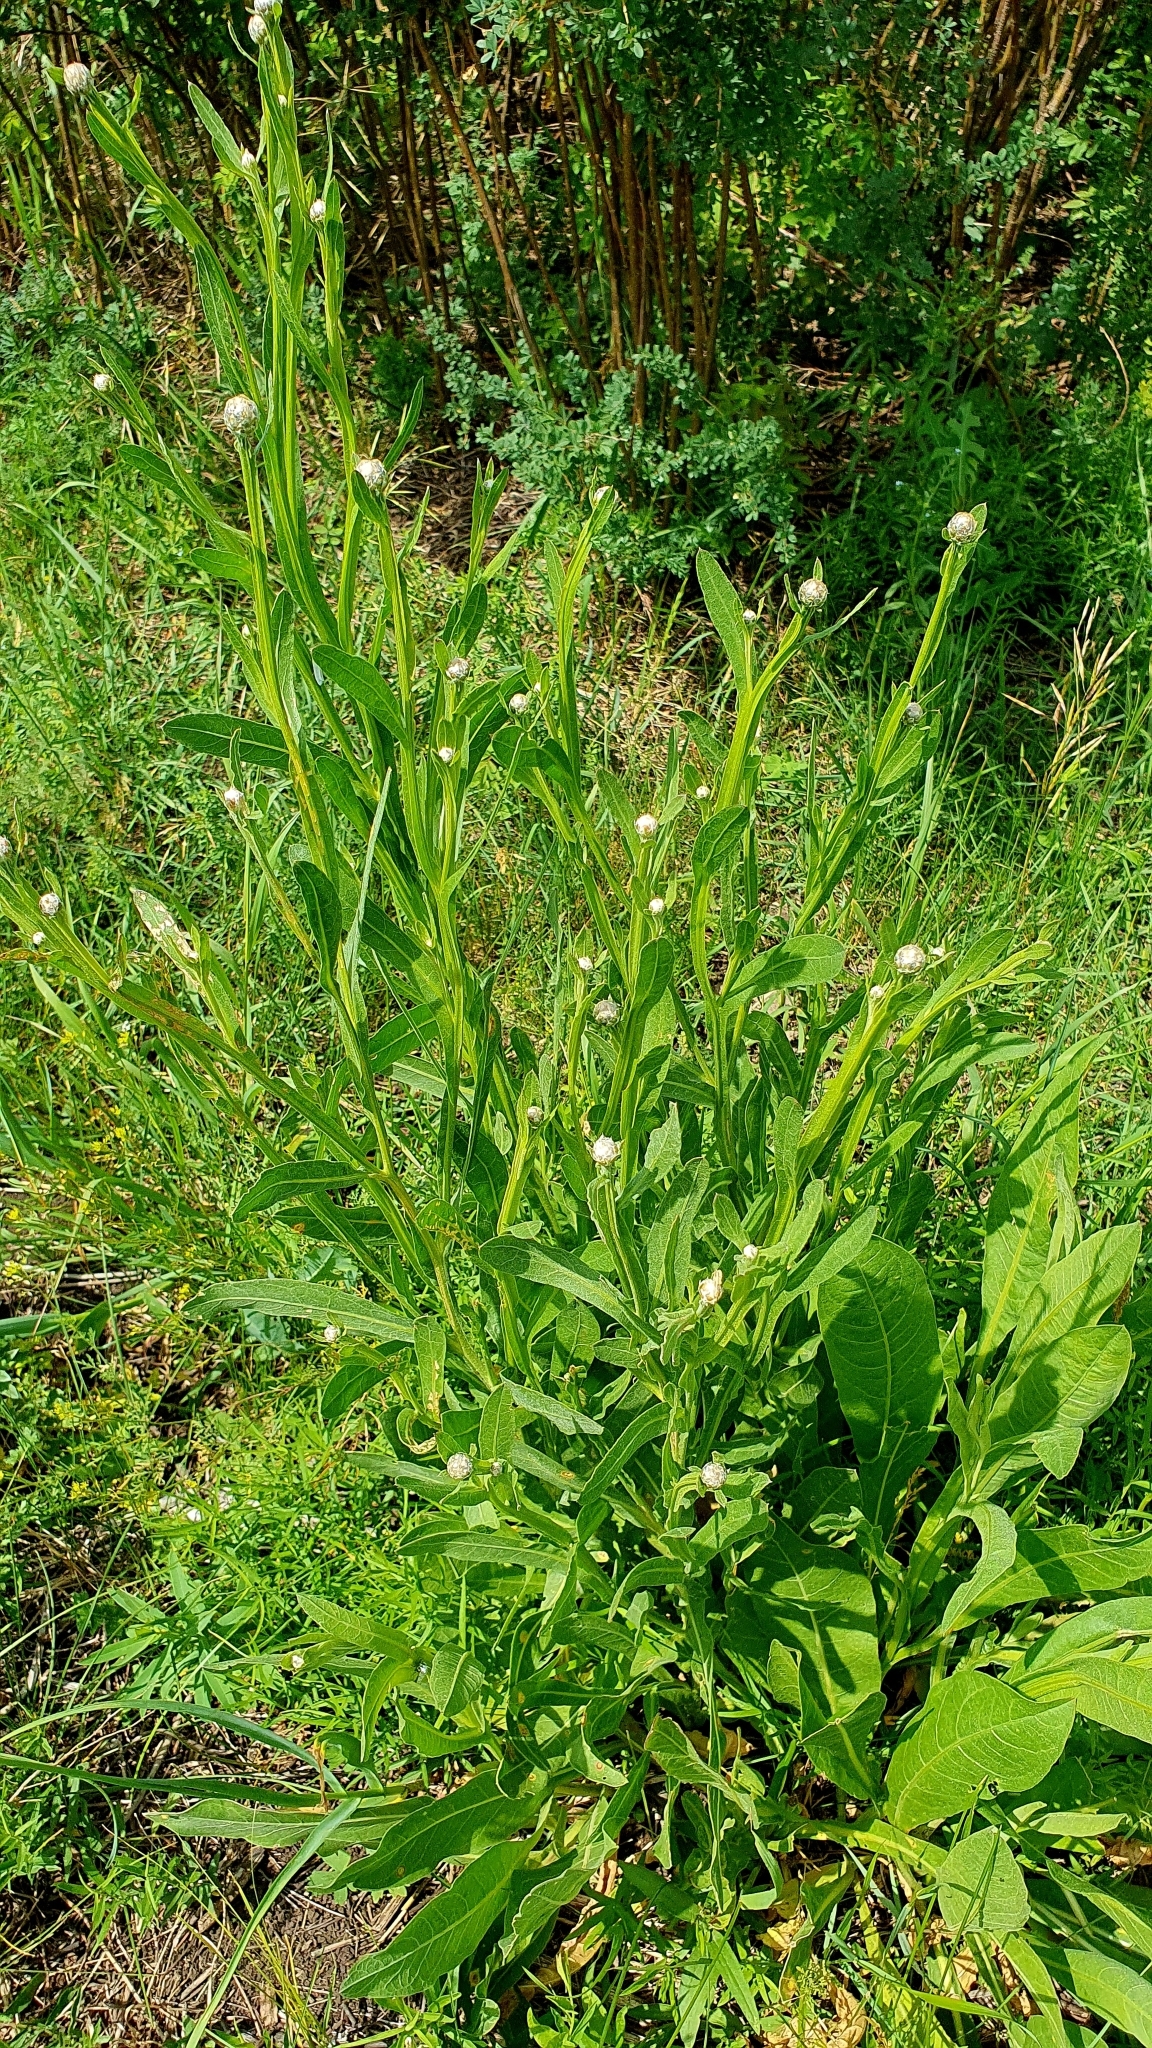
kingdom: Plantae
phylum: Tracheophyta
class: Magnoliopsida
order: Asterales
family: Asteraceae
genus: Centaurea
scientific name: Centaurea glastifolia
